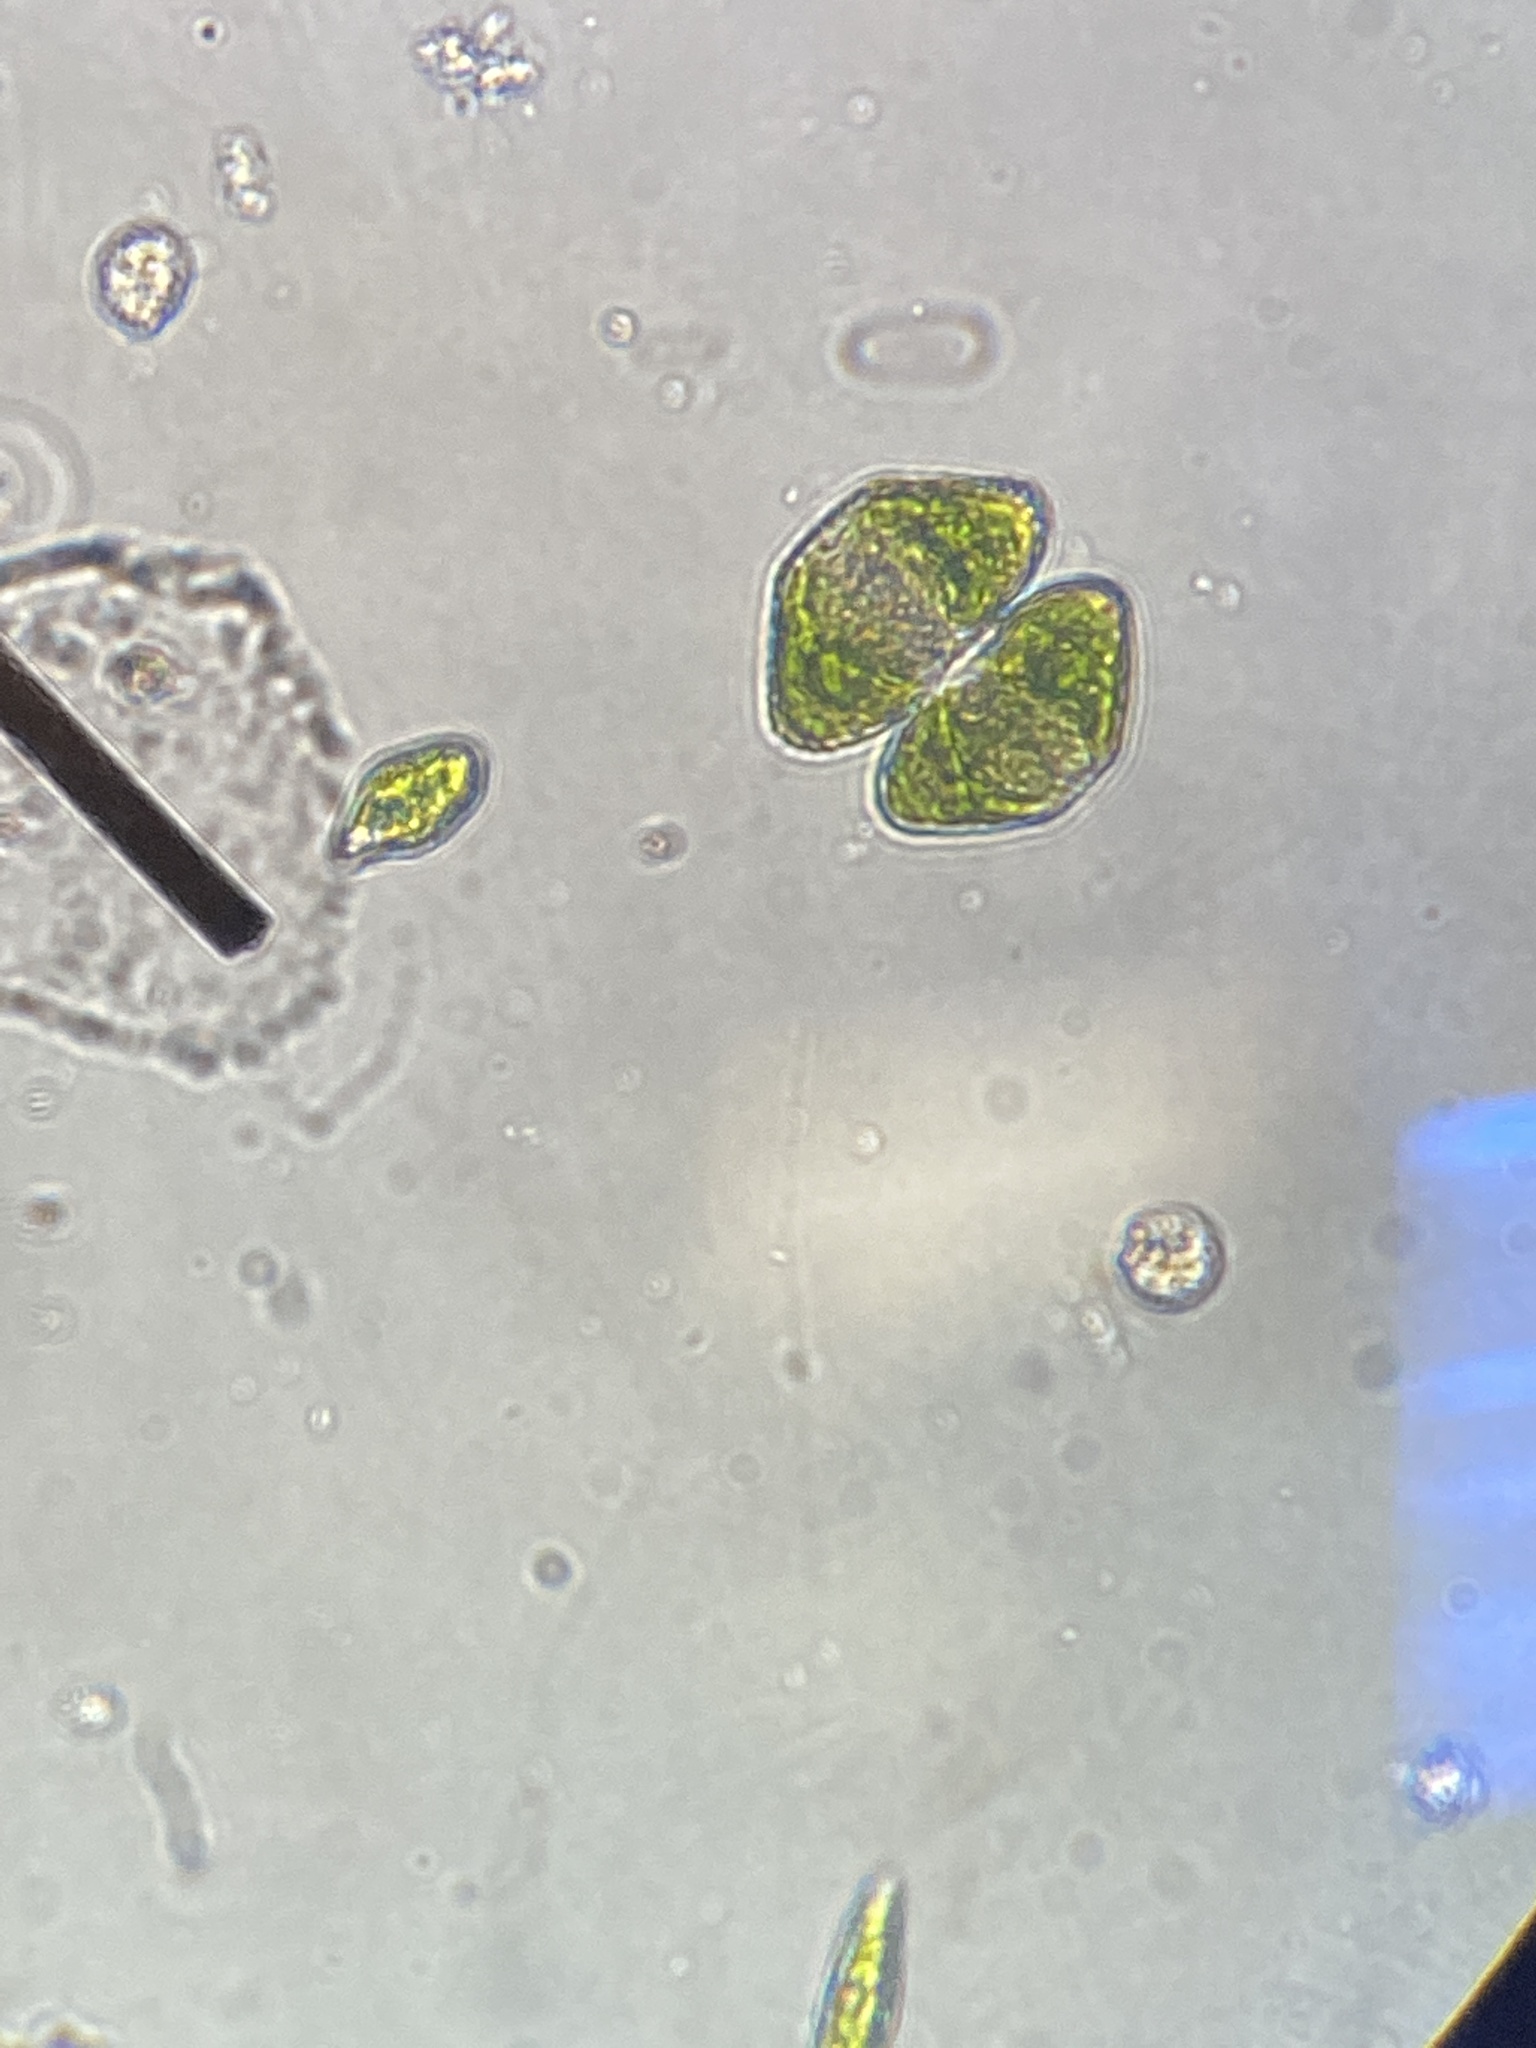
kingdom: Plantae
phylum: Charophyta
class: Conjugatophyceae
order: Desmidiales
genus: Cosmarium
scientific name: Cosmarium turpinii
